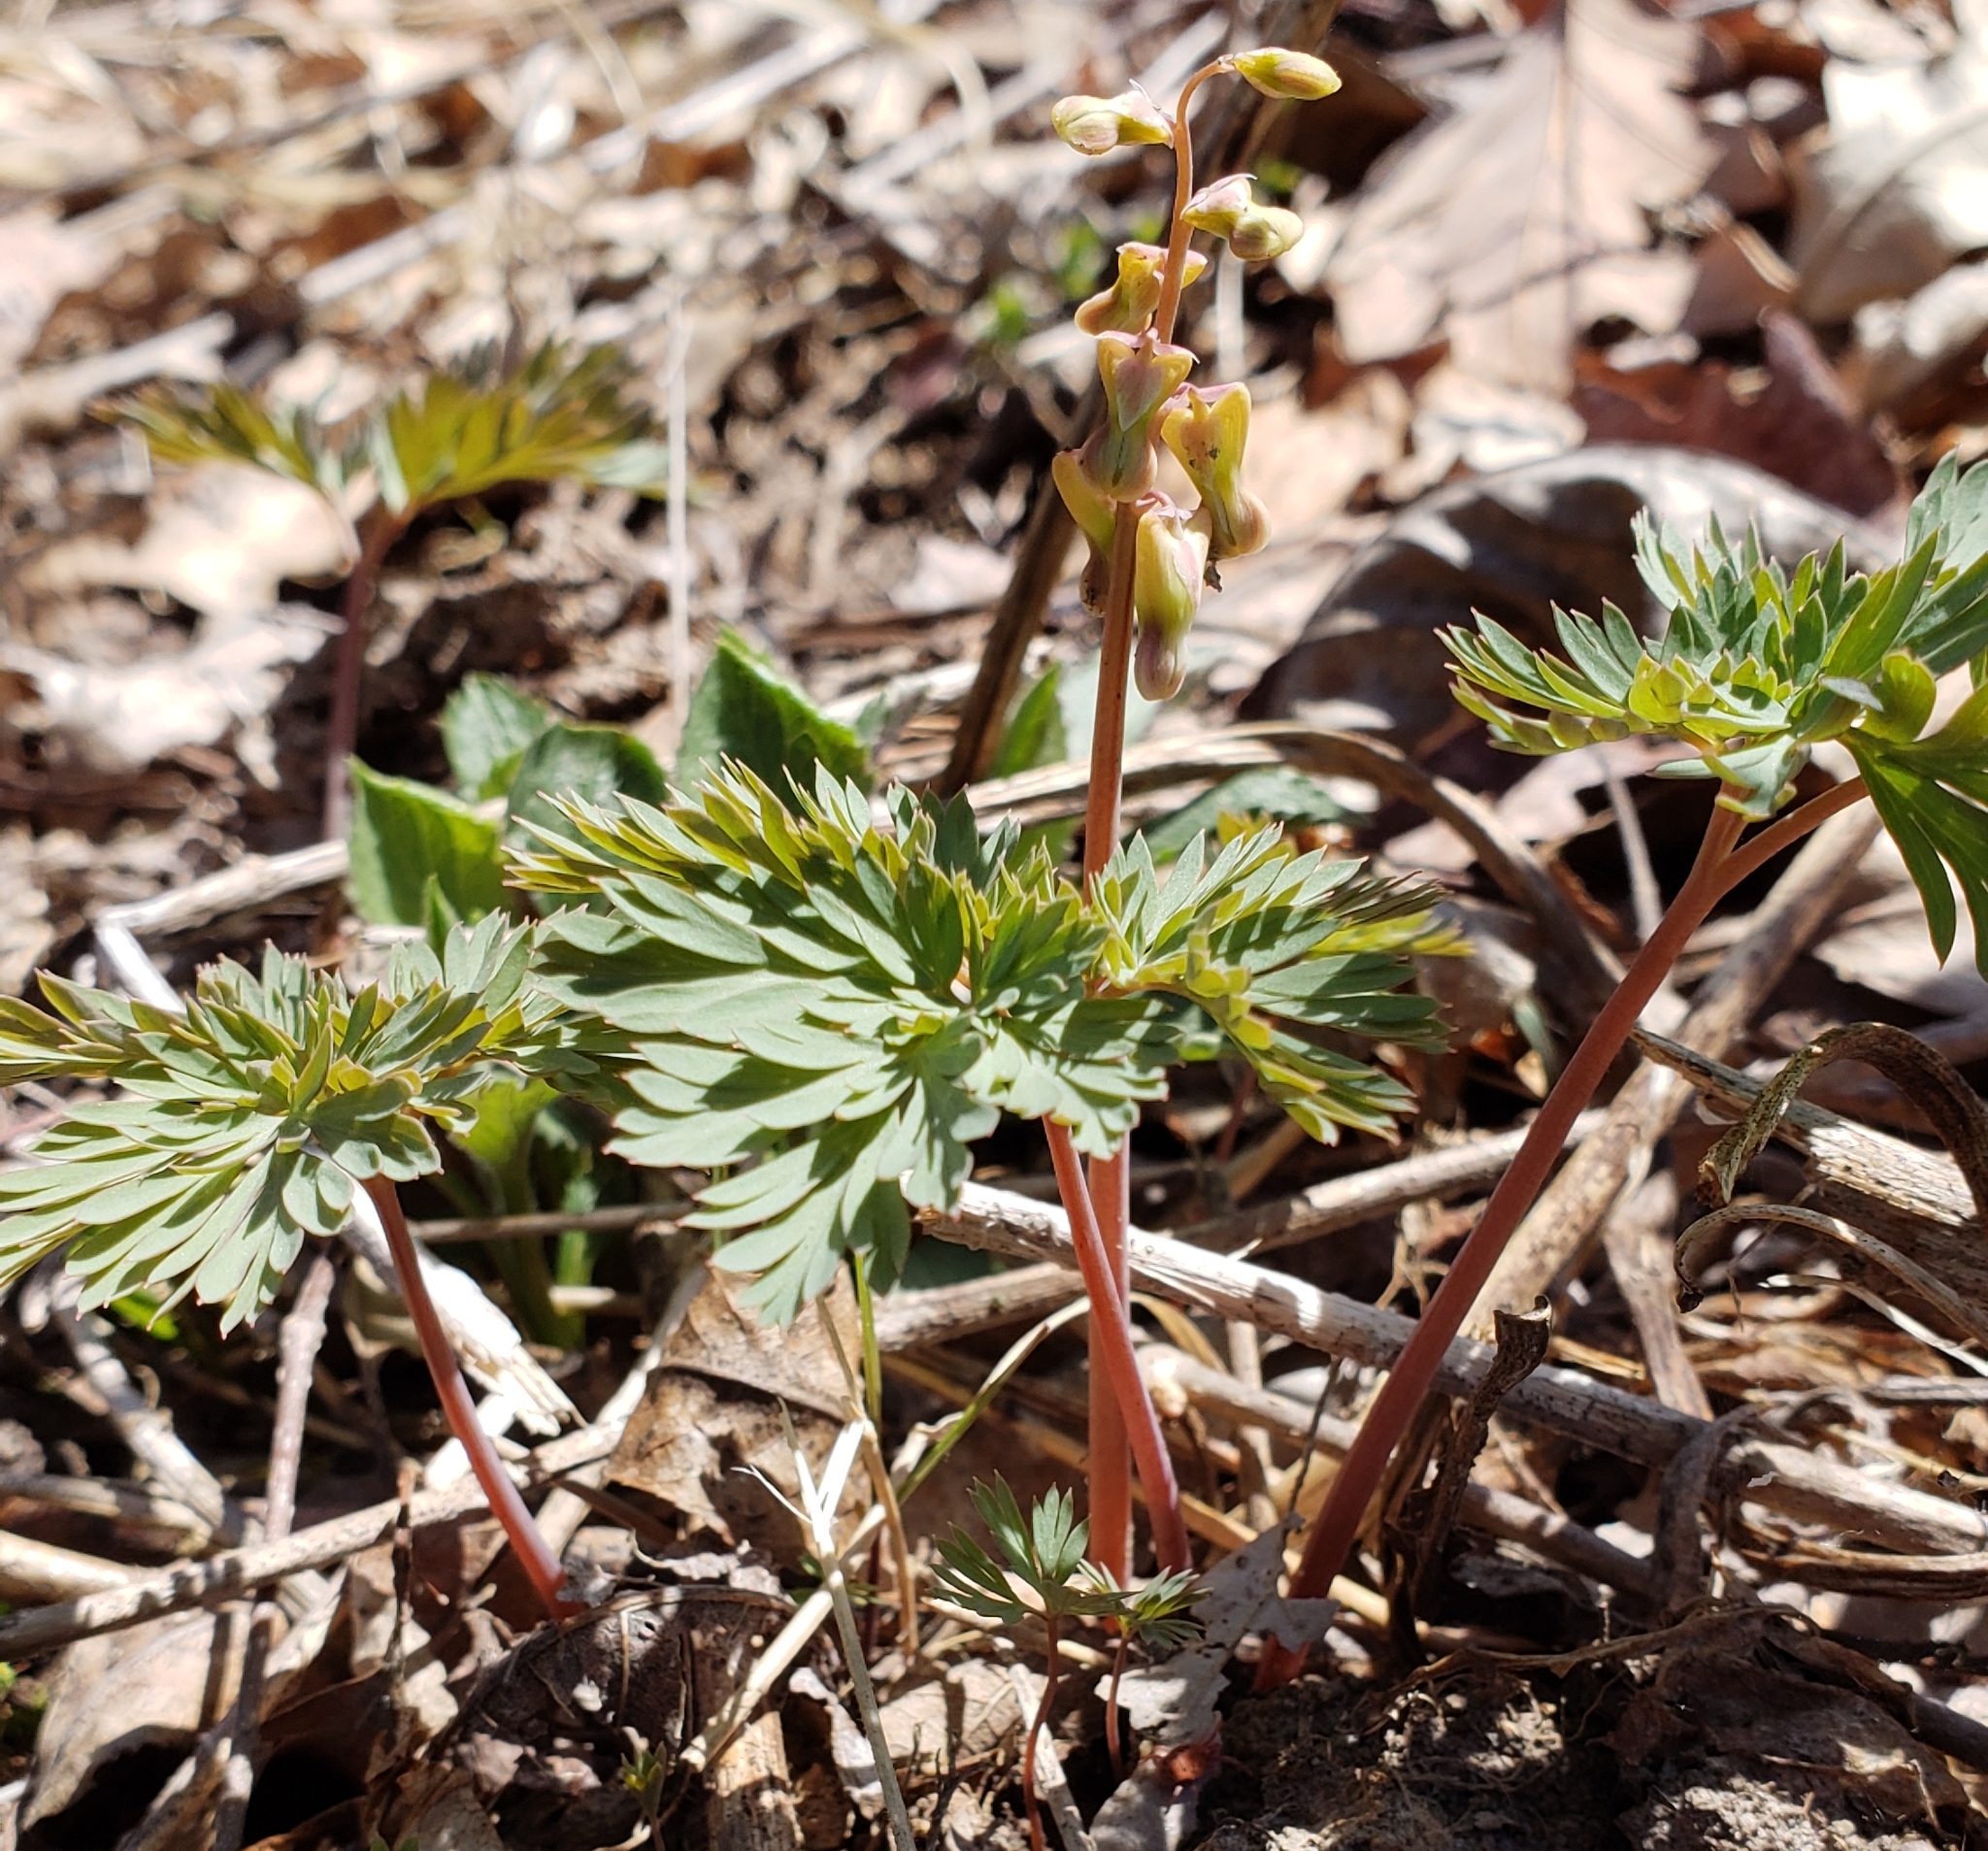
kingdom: Plantae
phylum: Tracheophyta
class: Magnoliopsida
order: Ranunculales
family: Papaveraceae
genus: Dicentra
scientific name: Dicentra cucullaria
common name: Dutchman's breeches
